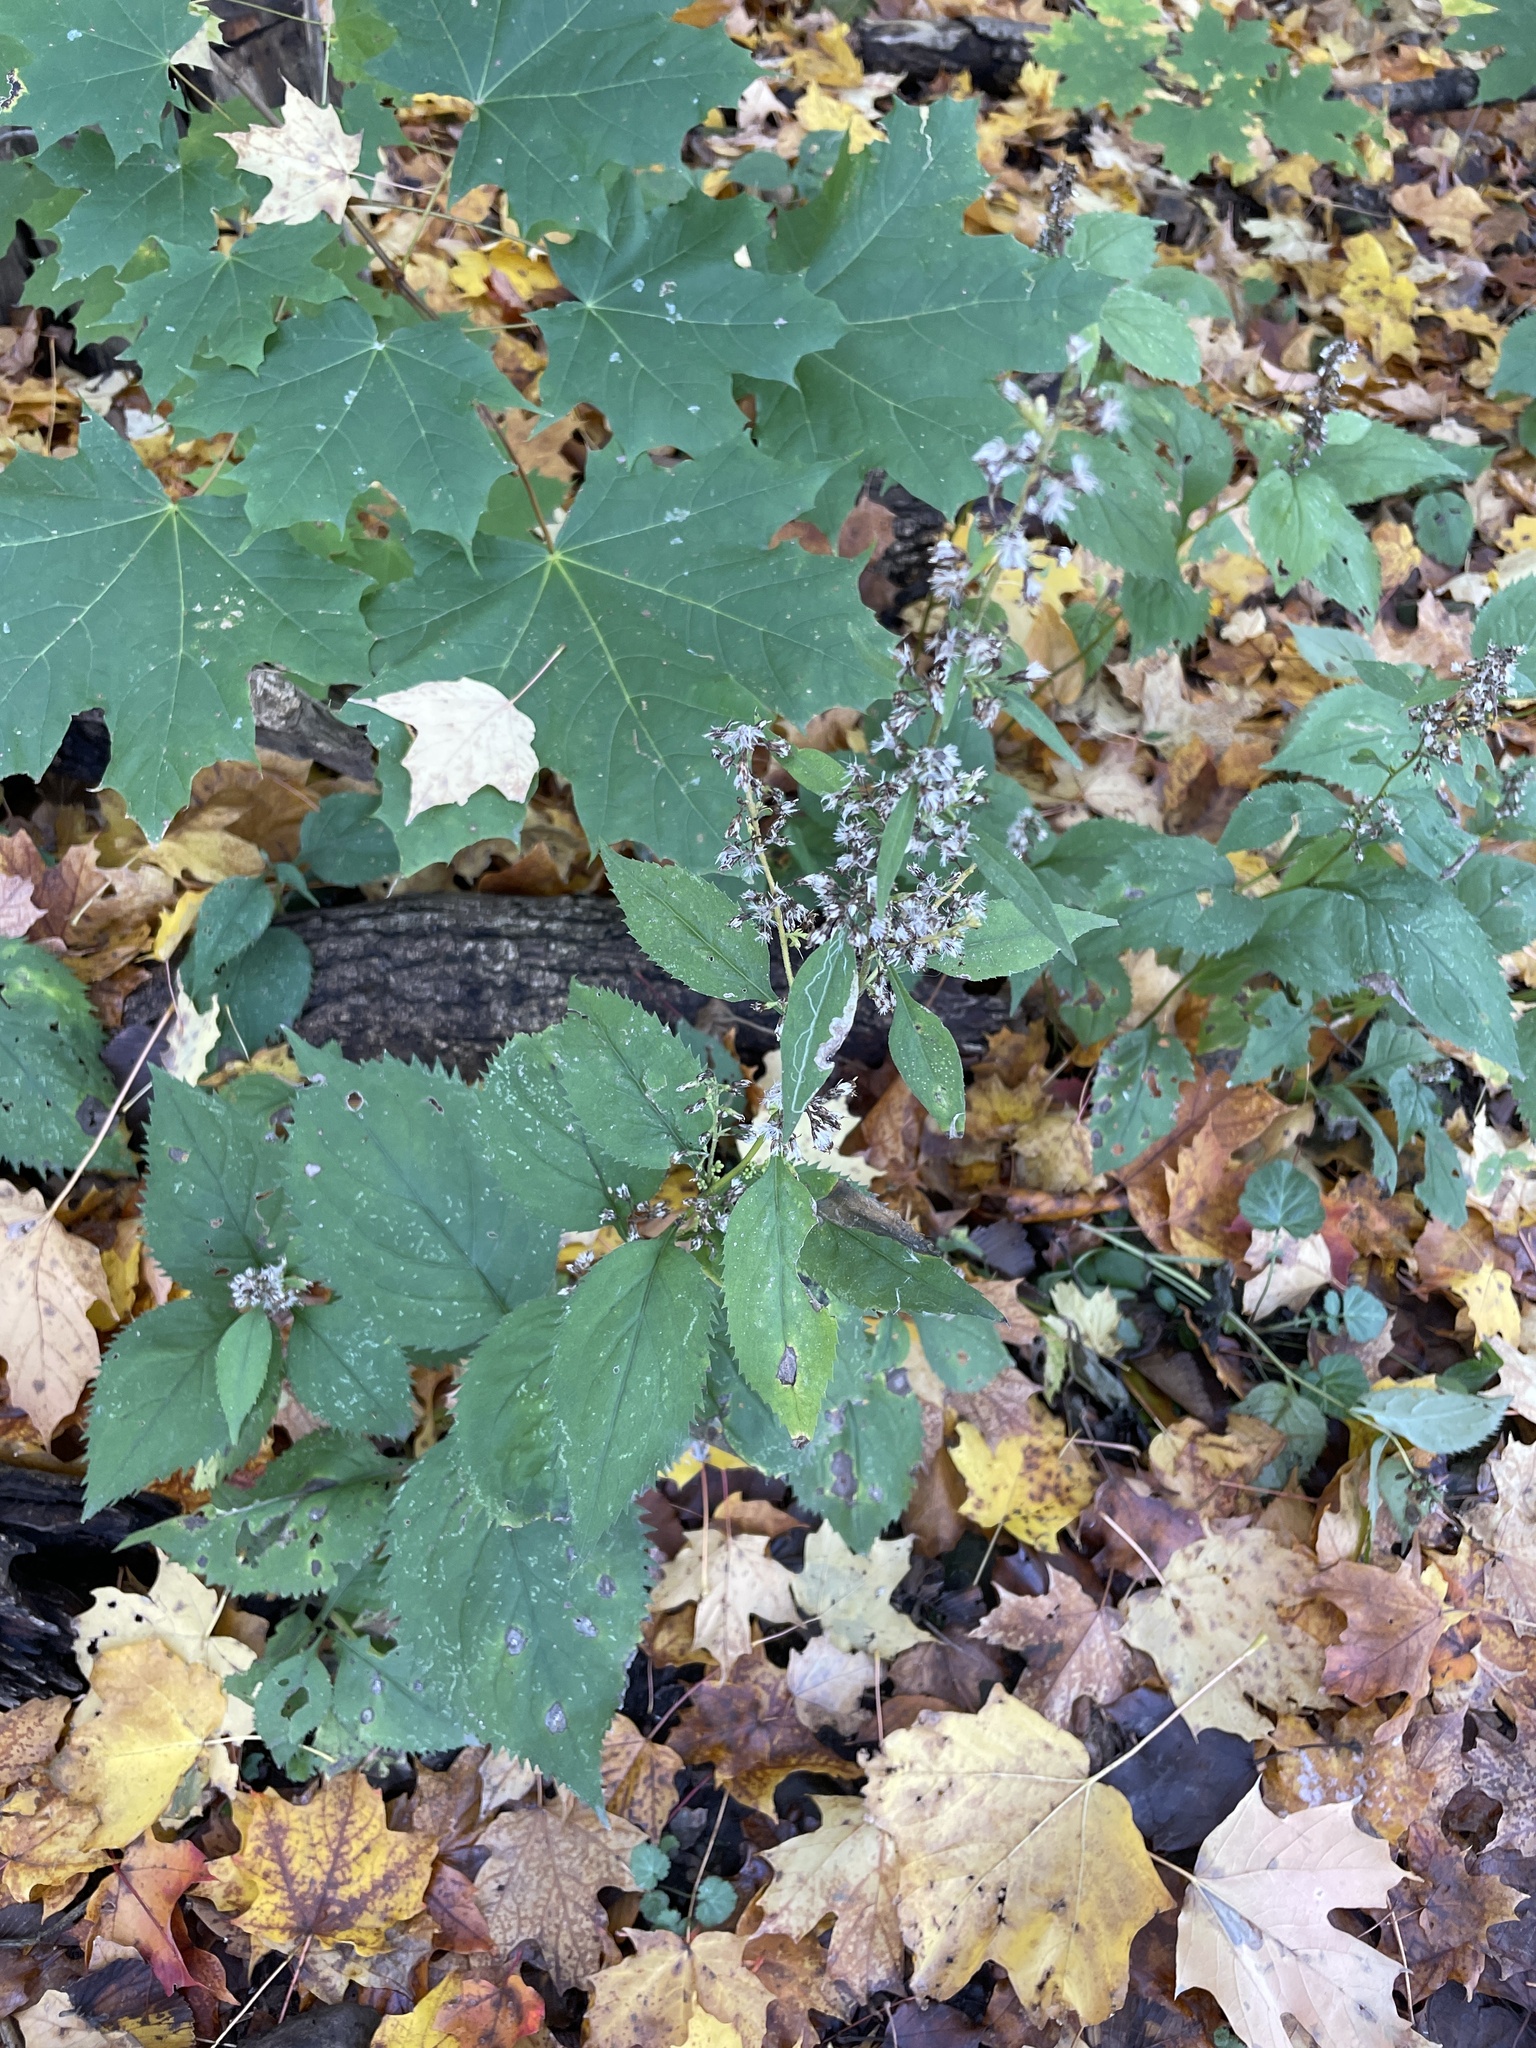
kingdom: Plantae
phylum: Tracheophyta
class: Magnoliopsida
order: Asterales
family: Asteraceae
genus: Solidago
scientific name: Solidago flexicaulis
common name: Zig-zag goldenrod
